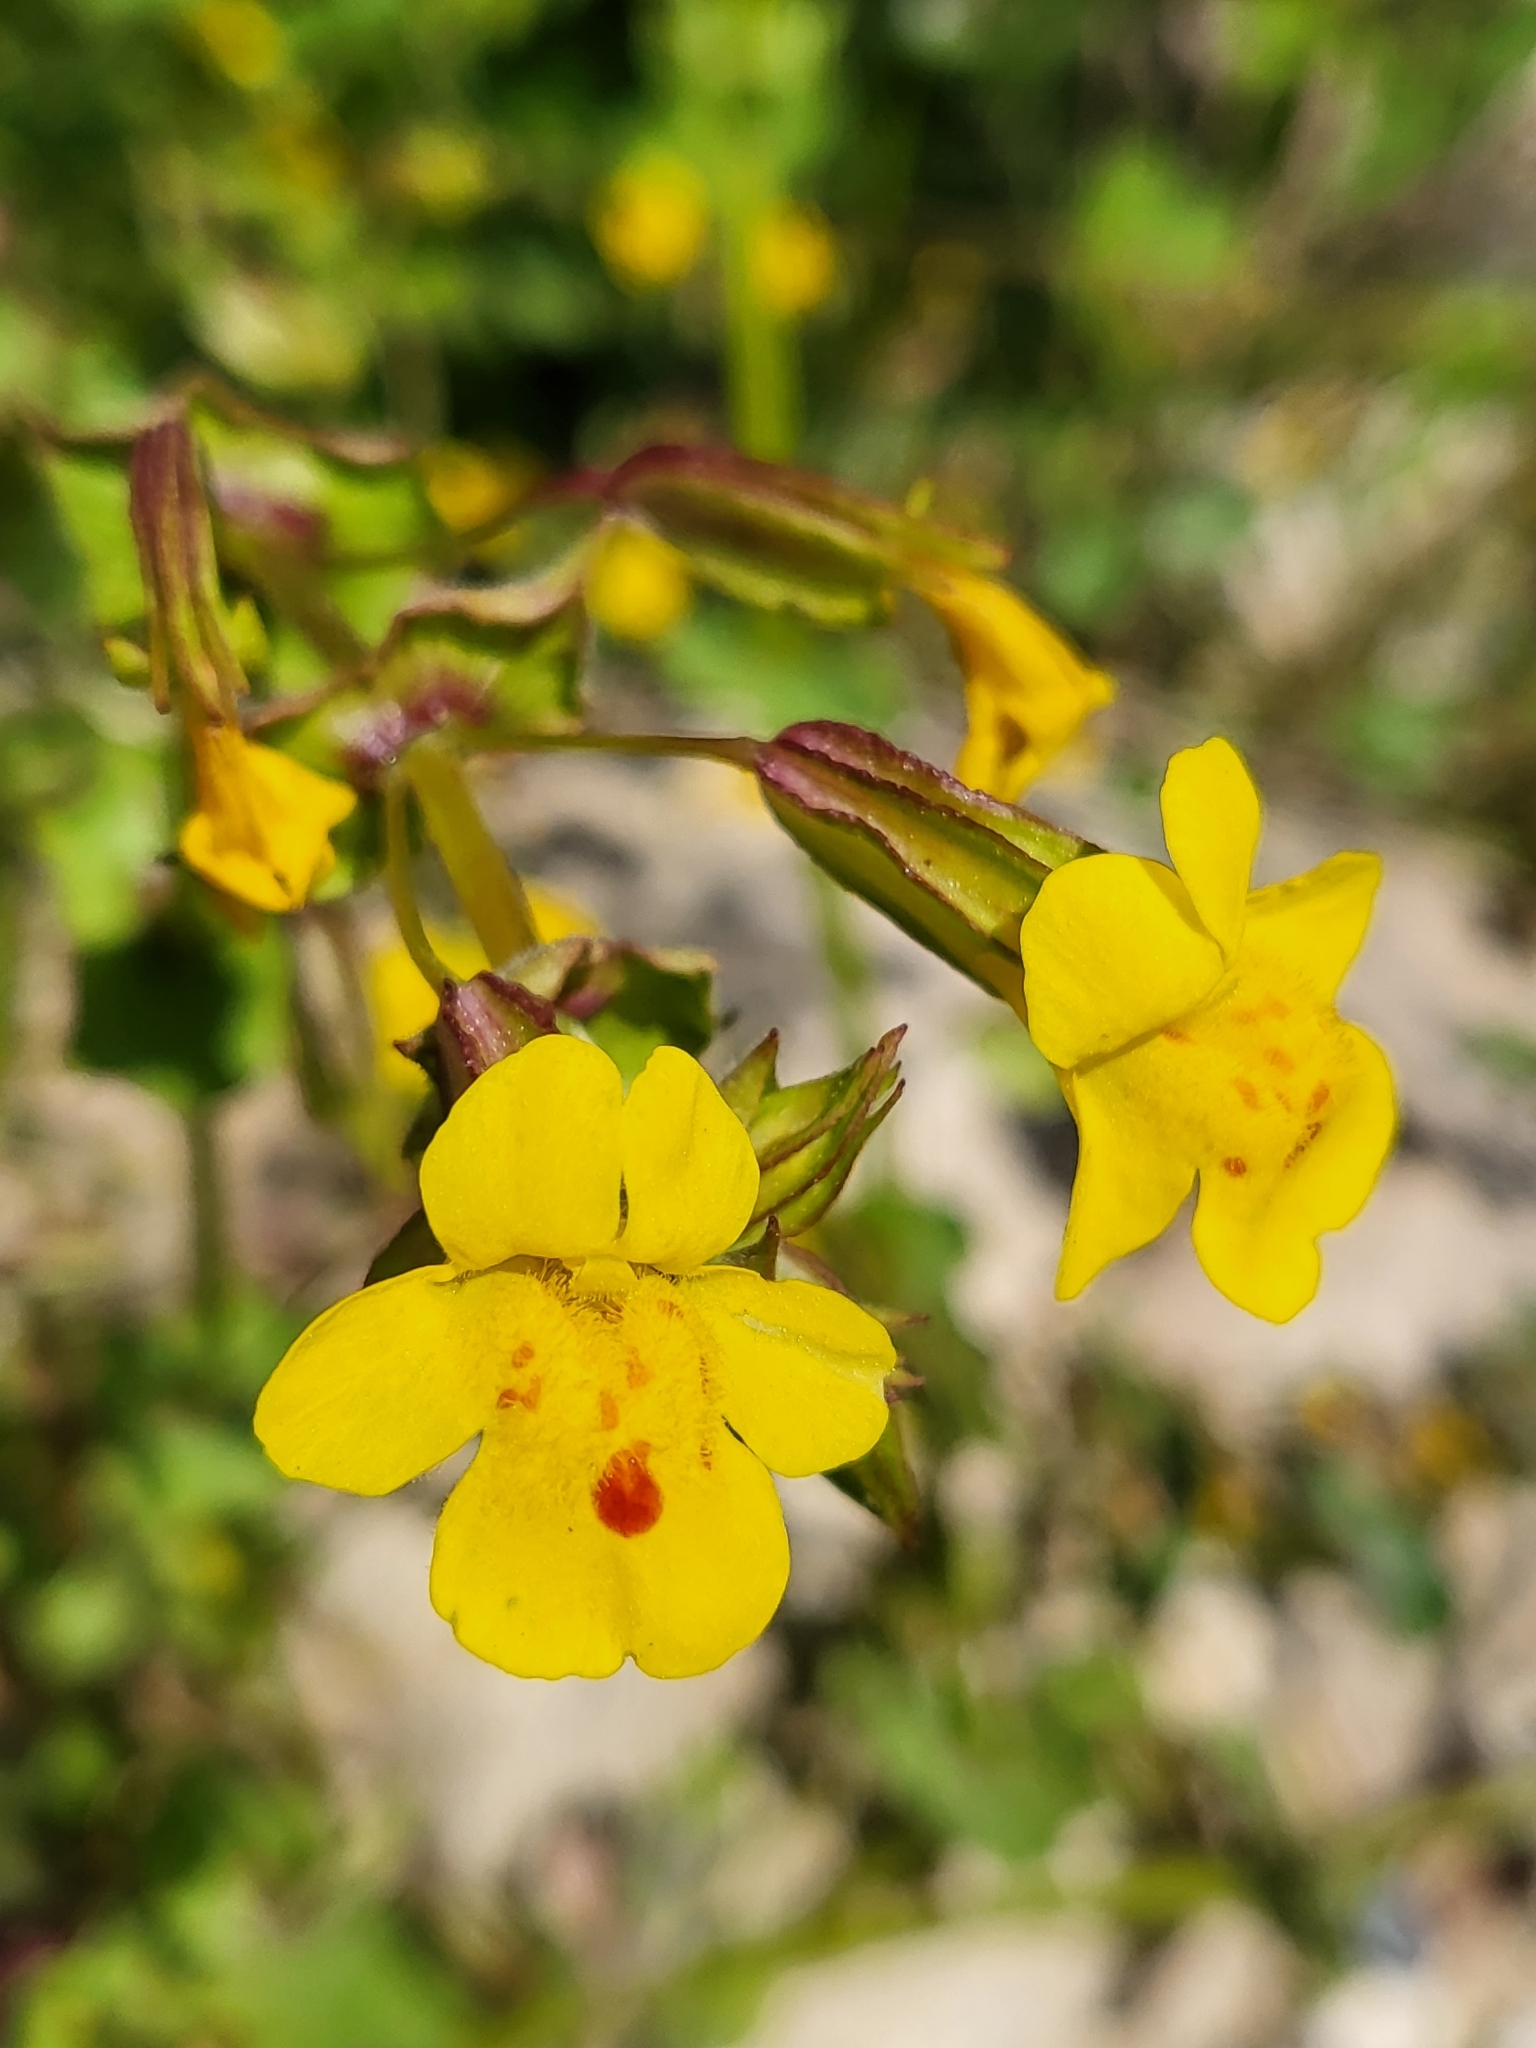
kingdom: Plantae
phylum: Tracheophyta
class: Magnoliopsida
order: Lamiales
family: Phrymaceae
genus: Erythranthe
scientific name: Erythranthe nasuta
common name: Sooke monkeyflower
